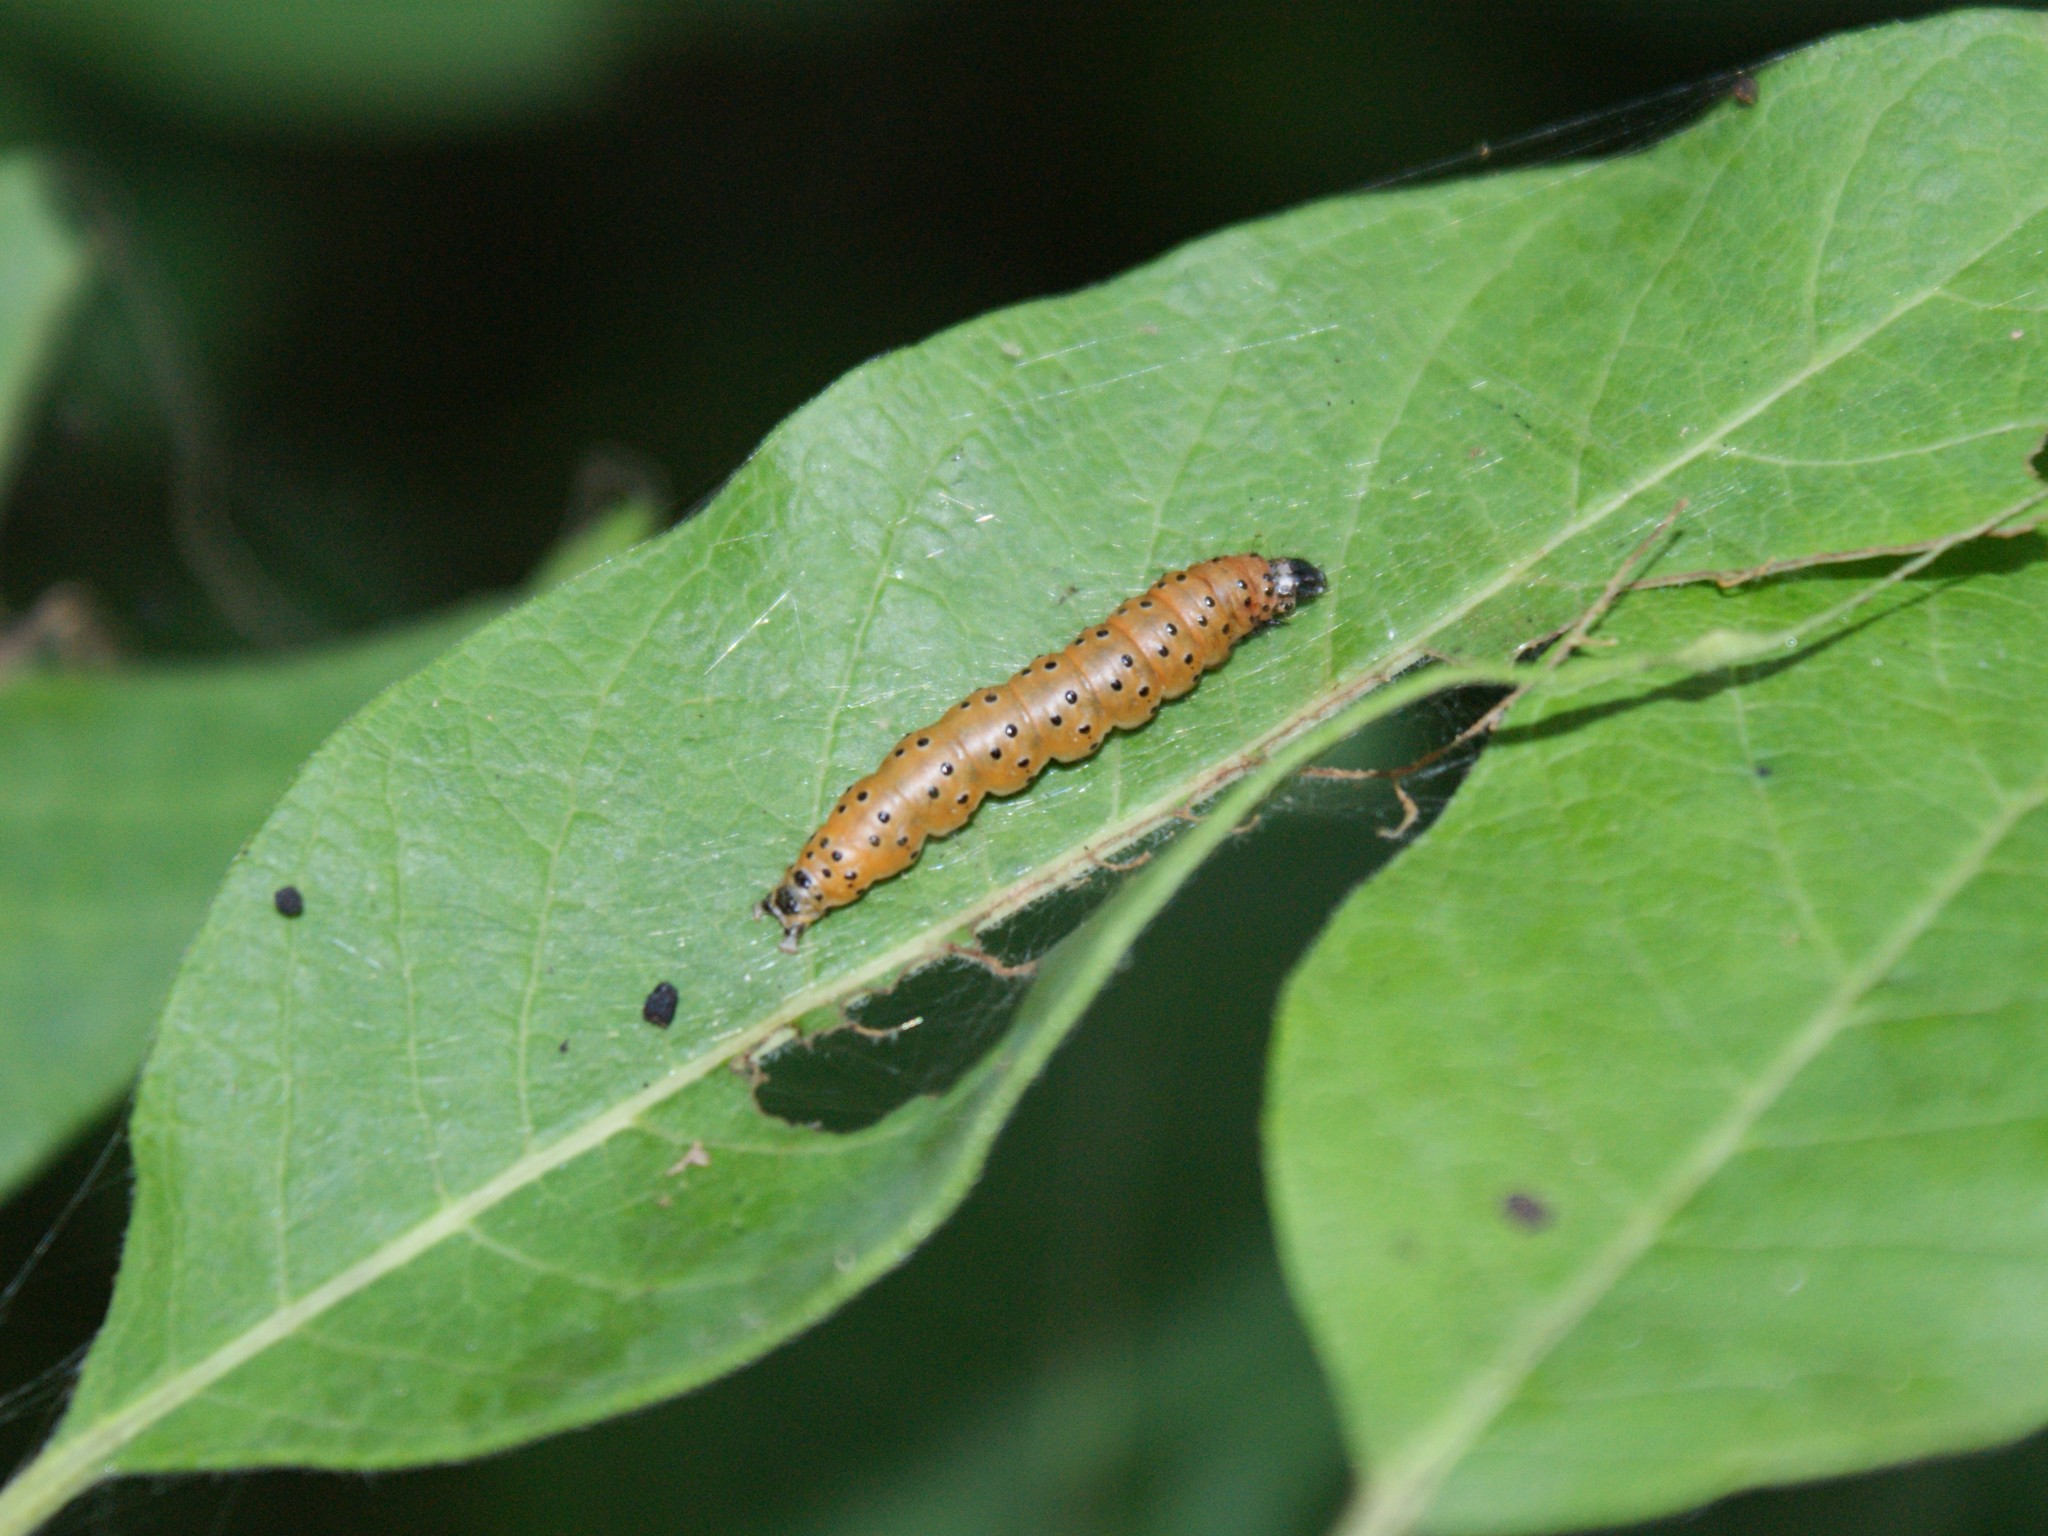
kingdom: Animalia
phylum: Arthropoda
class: Insecta
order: Lepidoptera
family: Crambidae
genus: Saucrobotys
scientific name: Saucrobotys futilalis
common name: Dogbane saucrobotys moth
